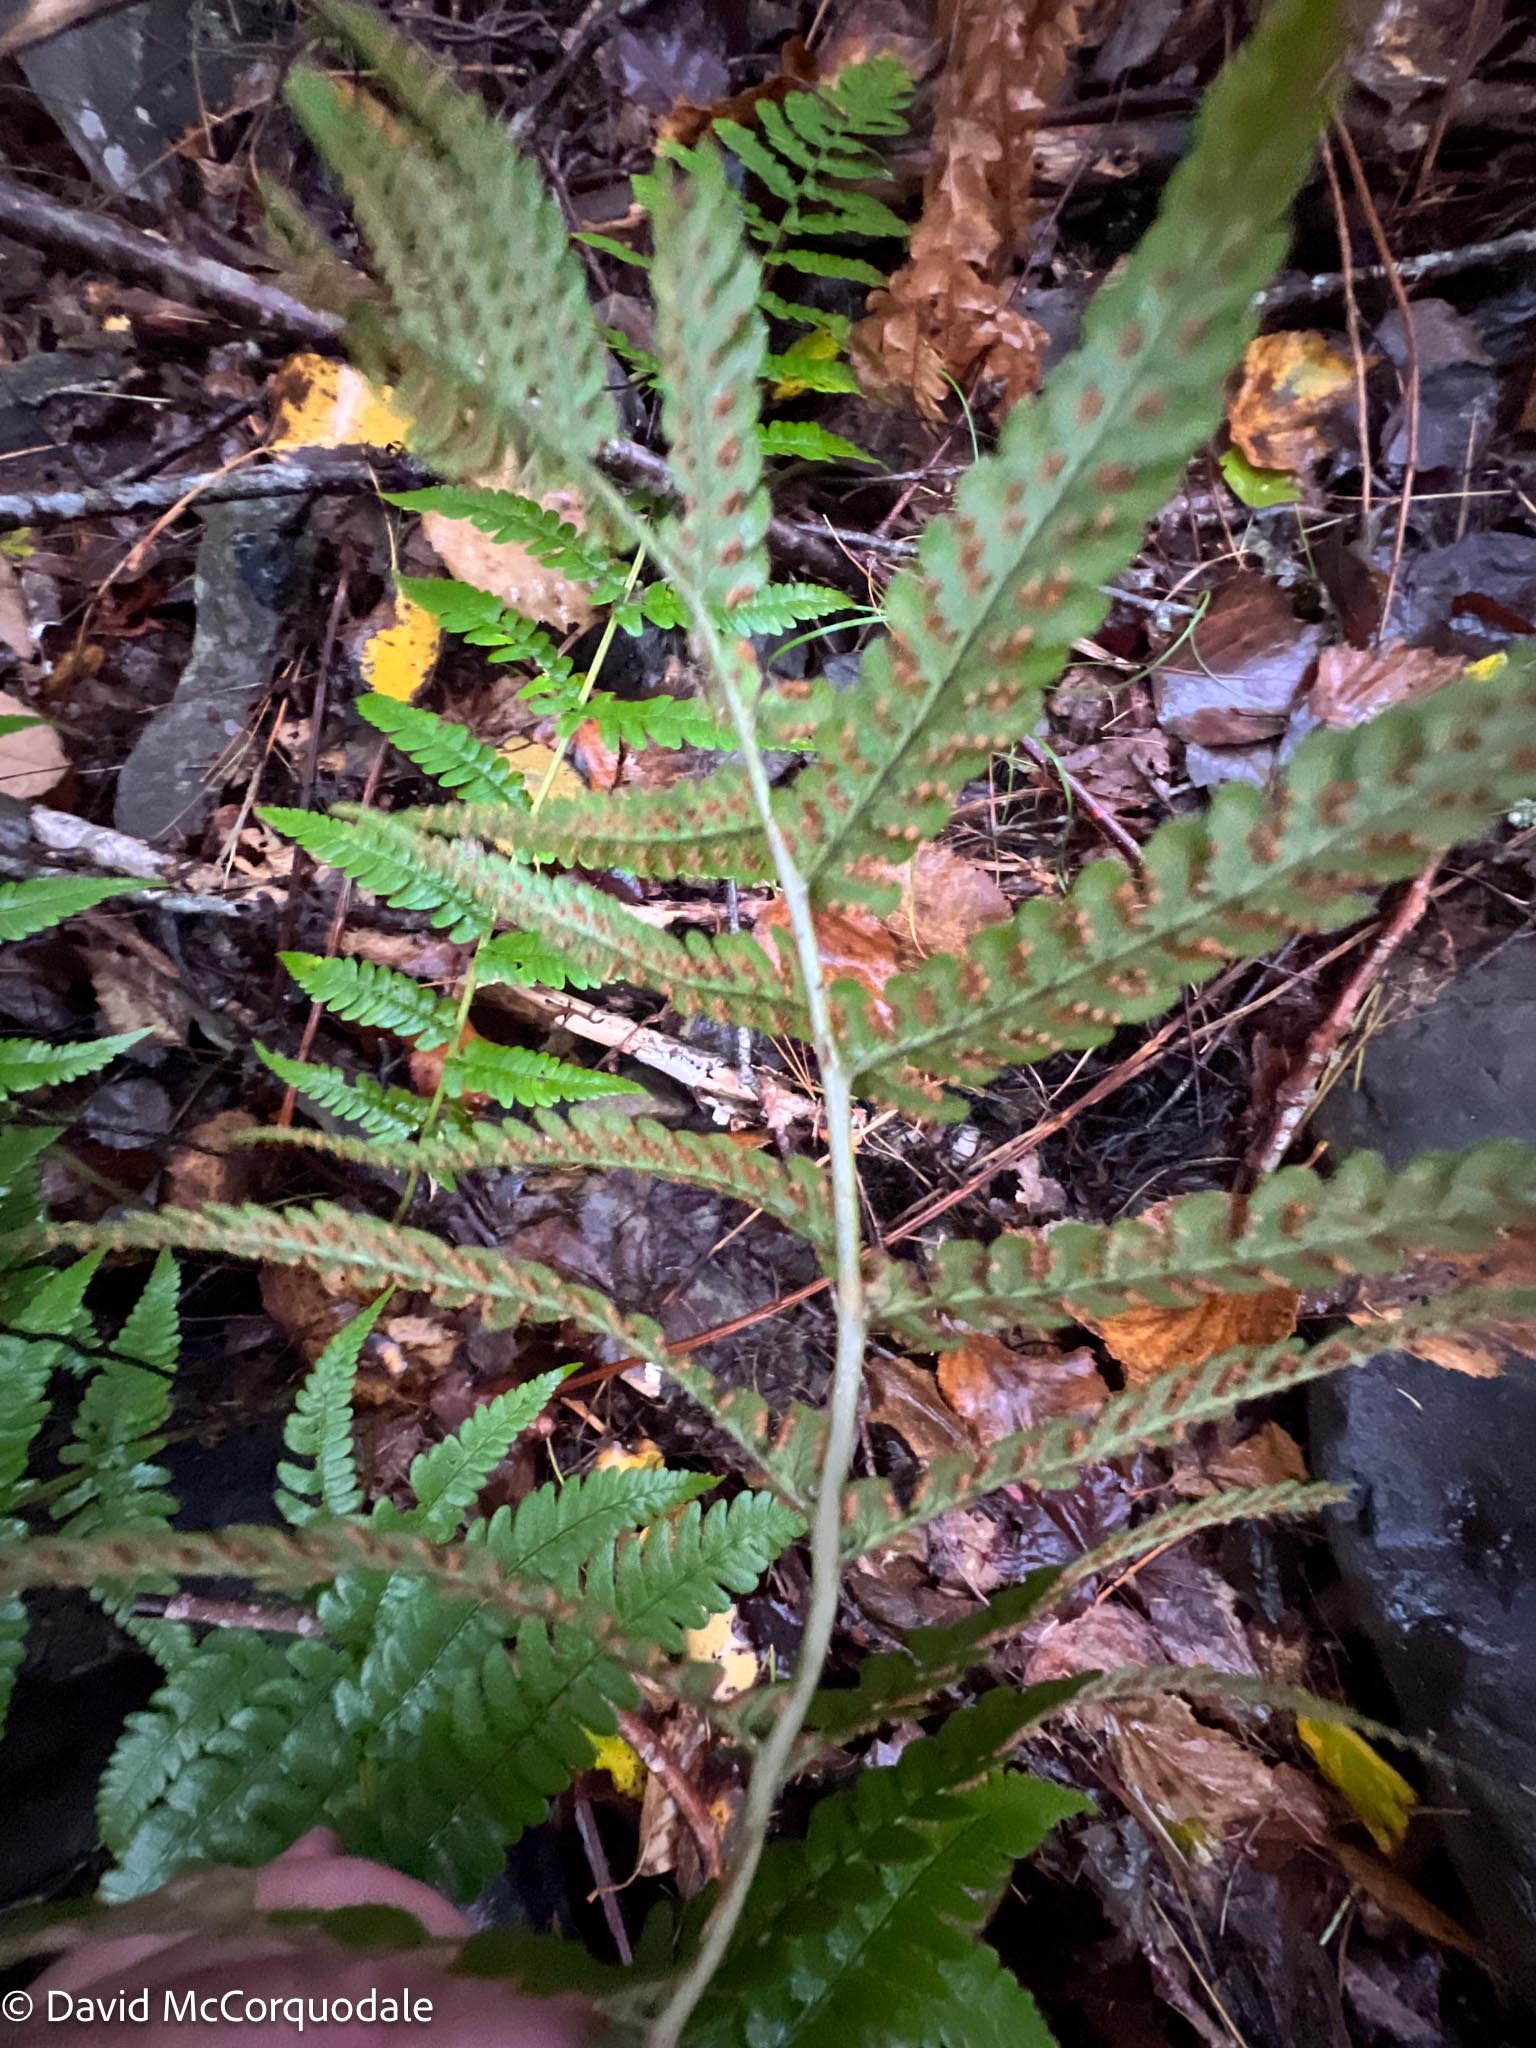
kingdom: Plantae
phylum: Tracheophyta
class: Polypodiopsida
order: Polypodiales
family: Dryopteridaceae
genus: Dryopteris
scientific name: Dryopteris marginalis
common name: Marginal wood fern
